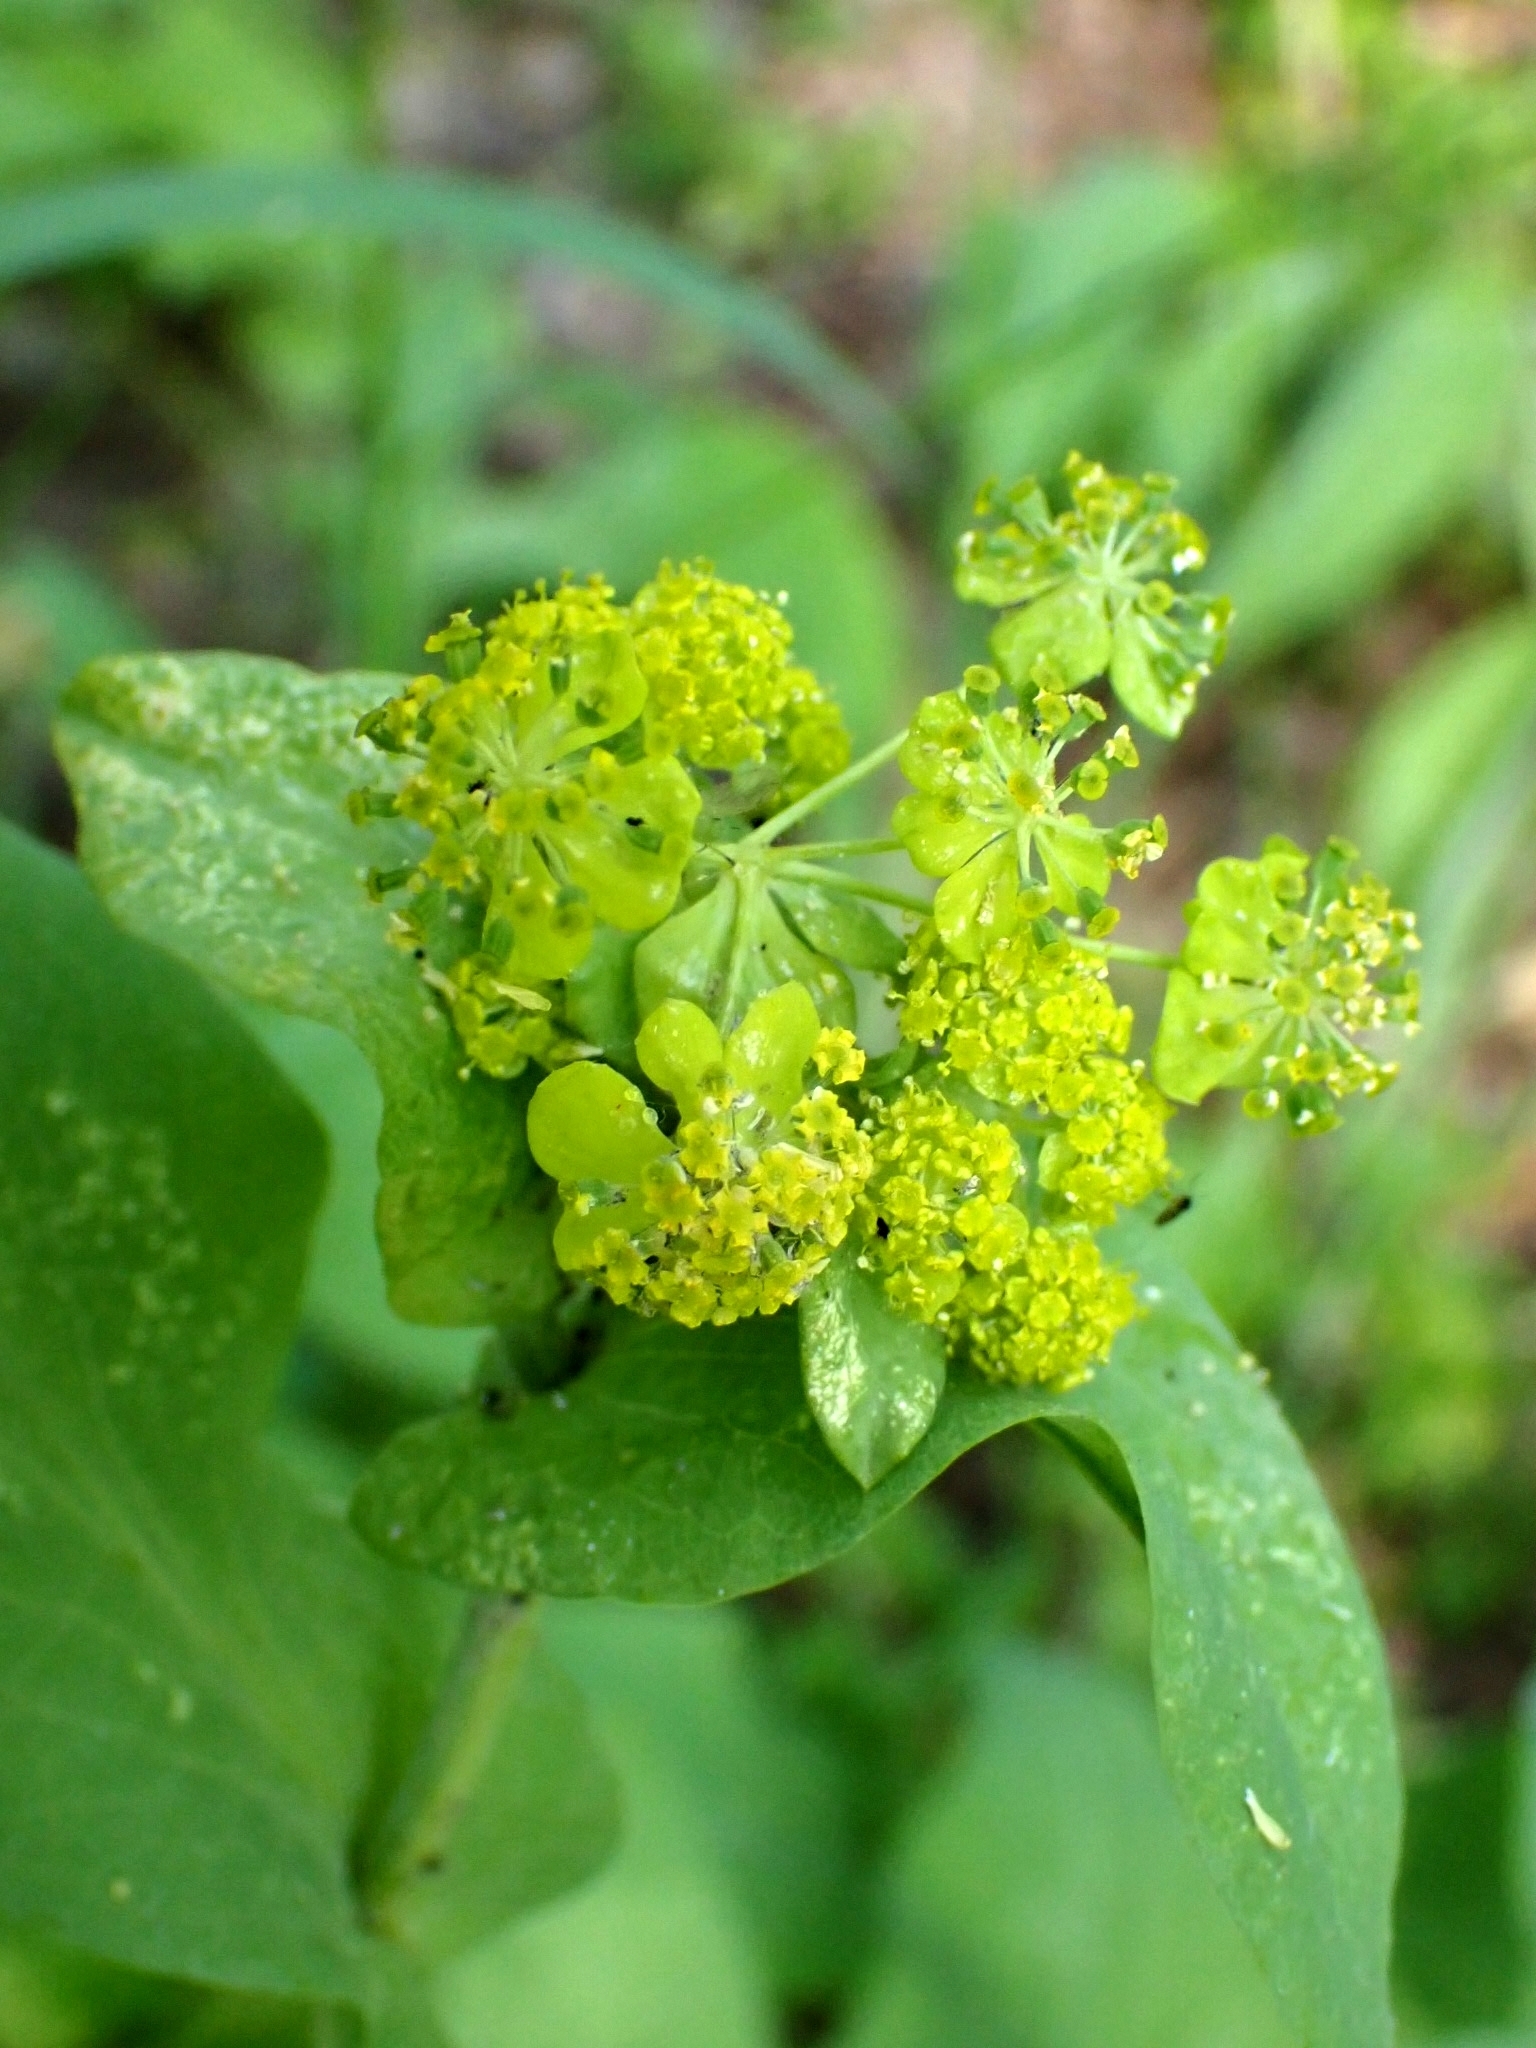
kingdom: Plantae
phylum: Tracheophyta
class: Magnoliopsida
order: Apiales
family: Apiaceae
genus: Bupleurum
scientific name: Bupleurum aureum
